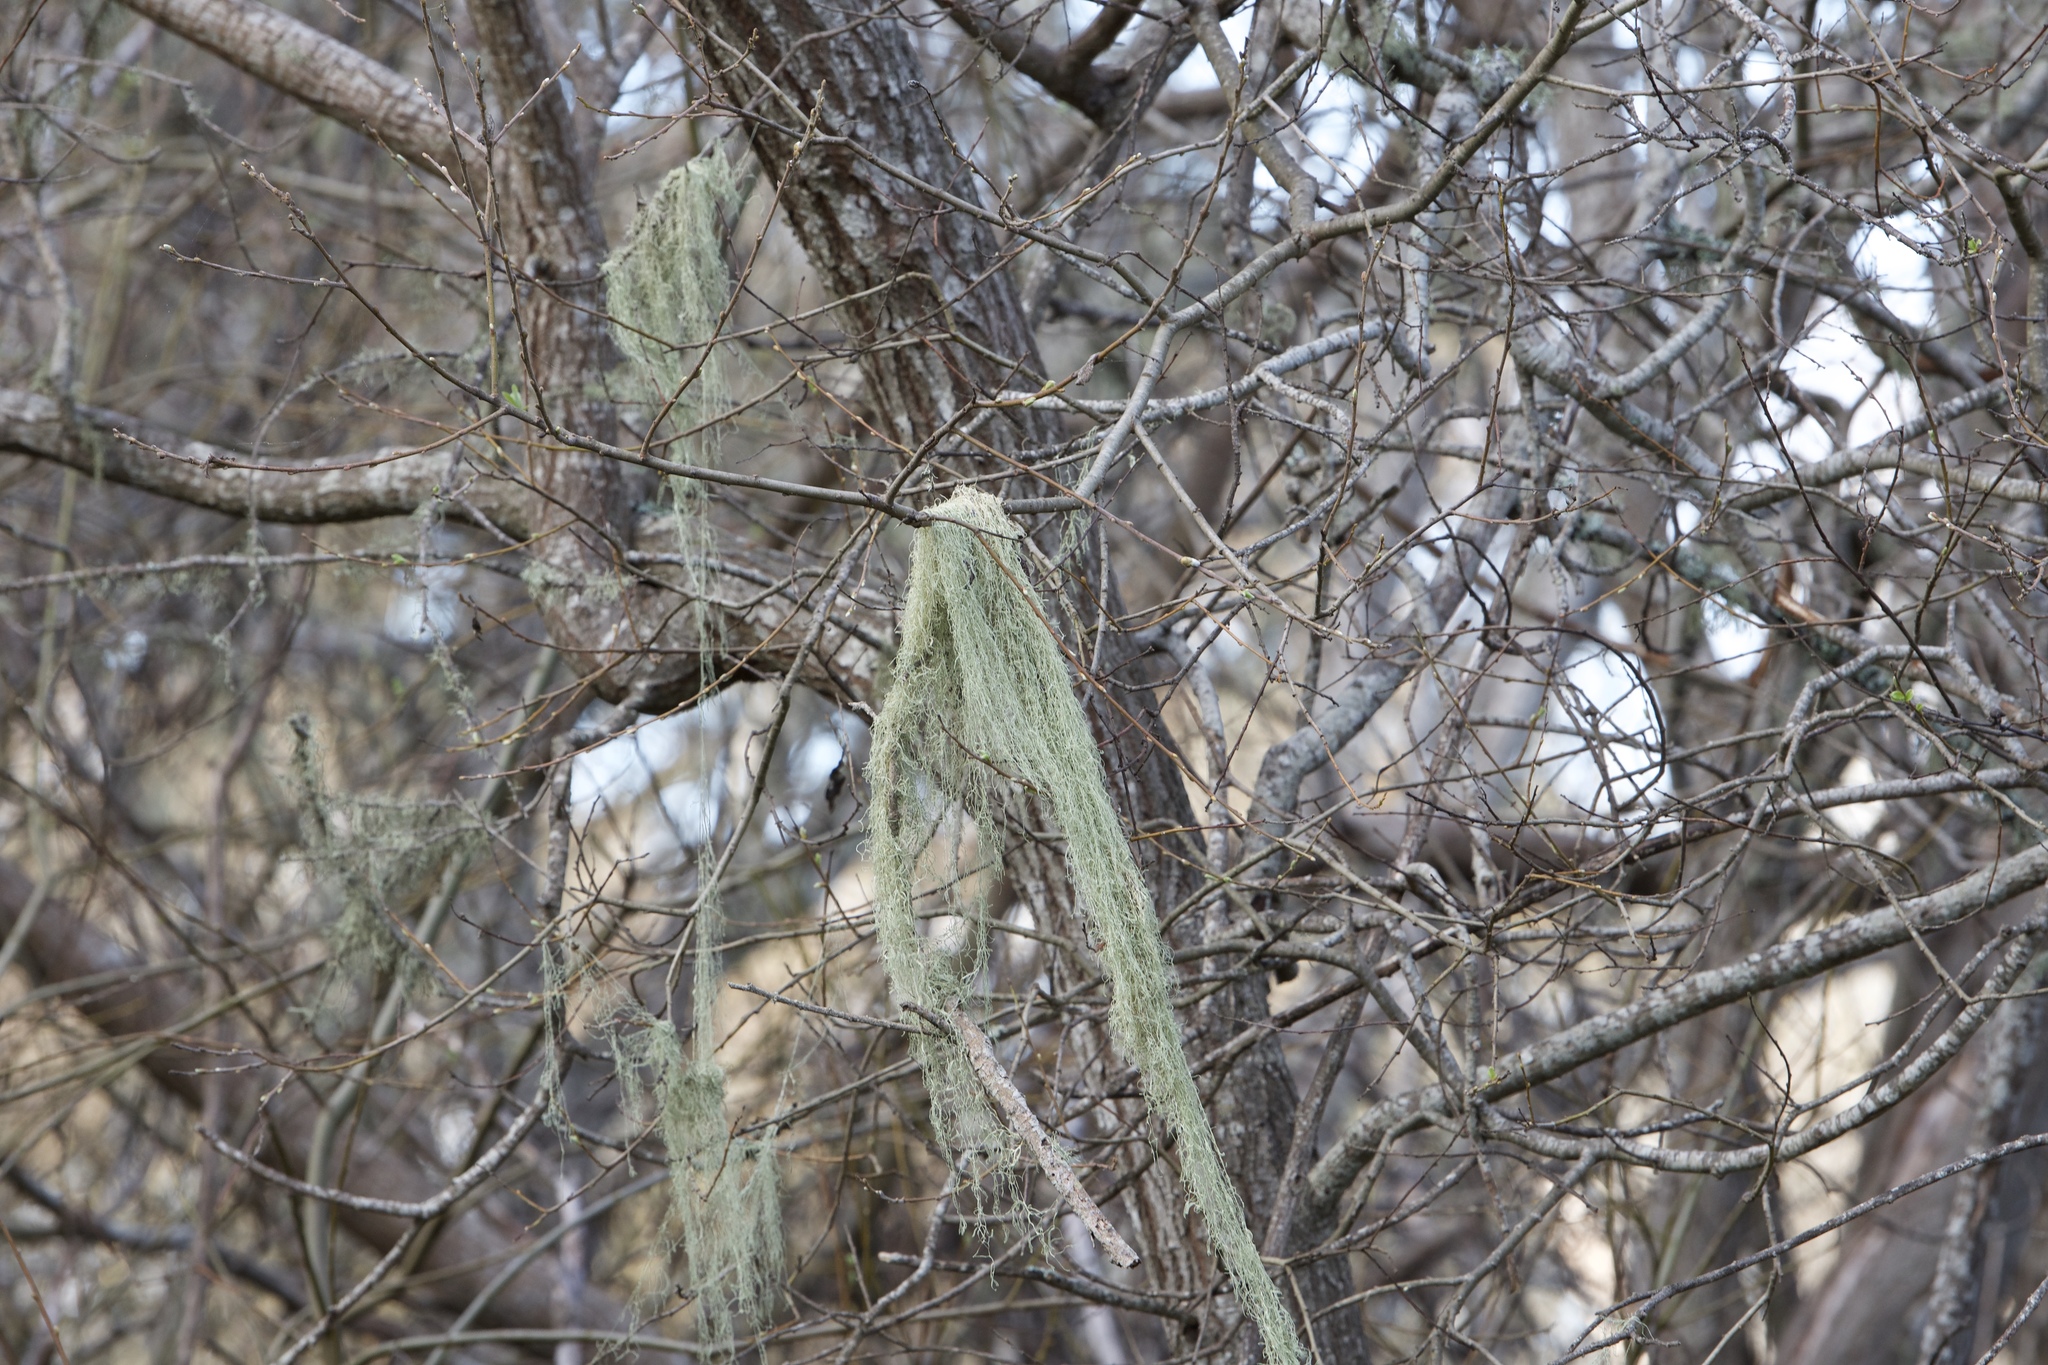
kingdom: Fungi
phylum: Ascomycota
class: Lecanoromycetes
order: Lecanorales
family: Ramalinaceae
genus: Ramalina
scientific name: Ramalina menziesii
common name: Lace lichen
